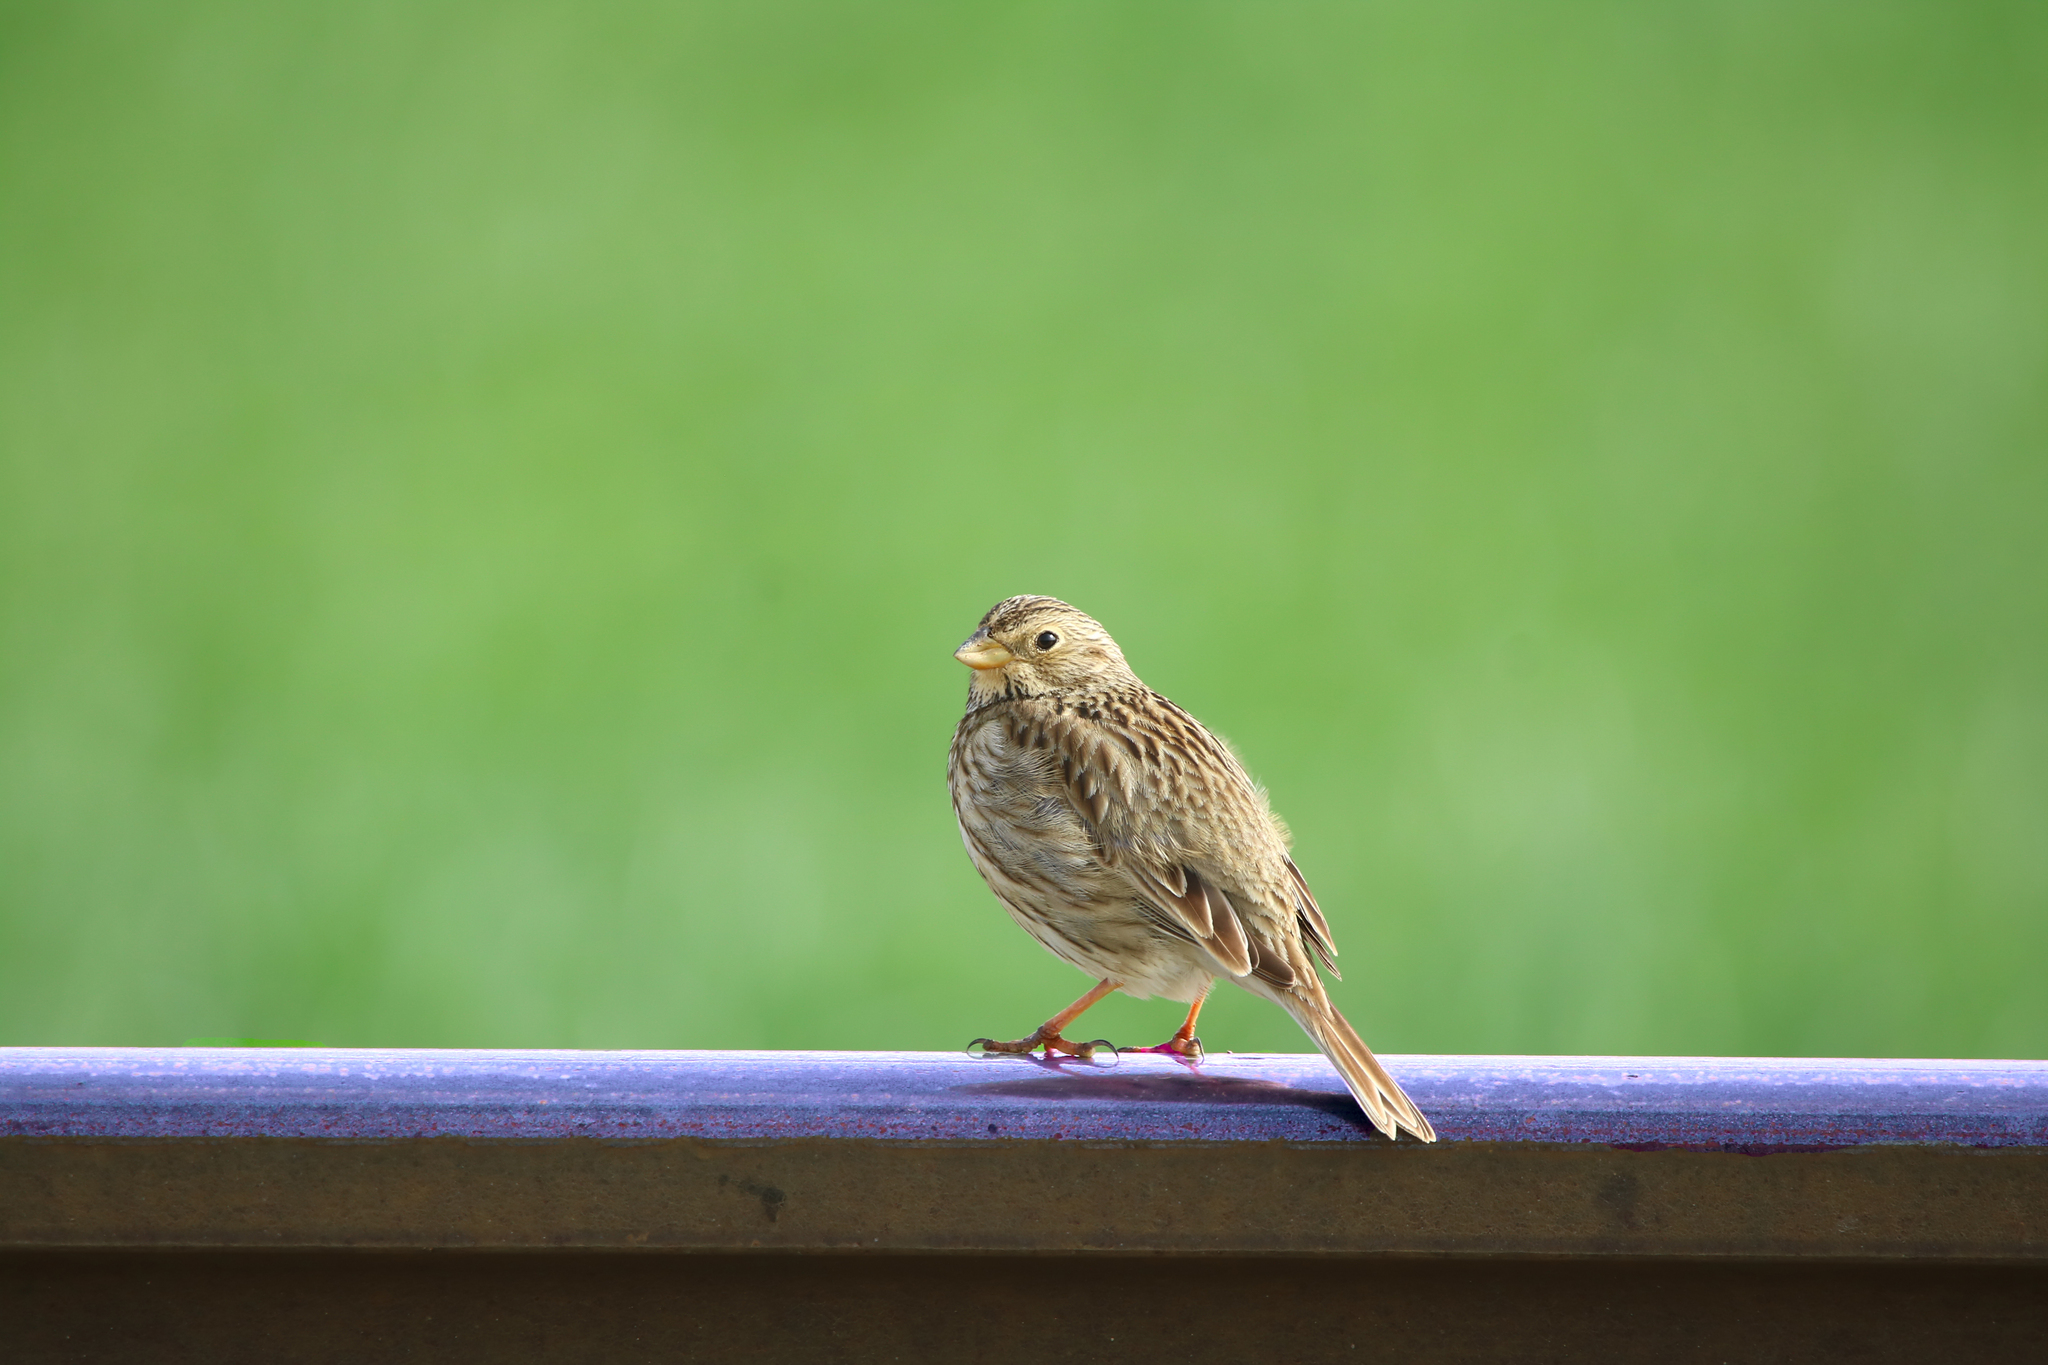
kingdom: Animalia
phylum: Chordata
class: Aves
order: Passeriformes
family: Emberizidae
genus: Emberiza
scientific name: Emberiza calandra
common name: Corn bunting
